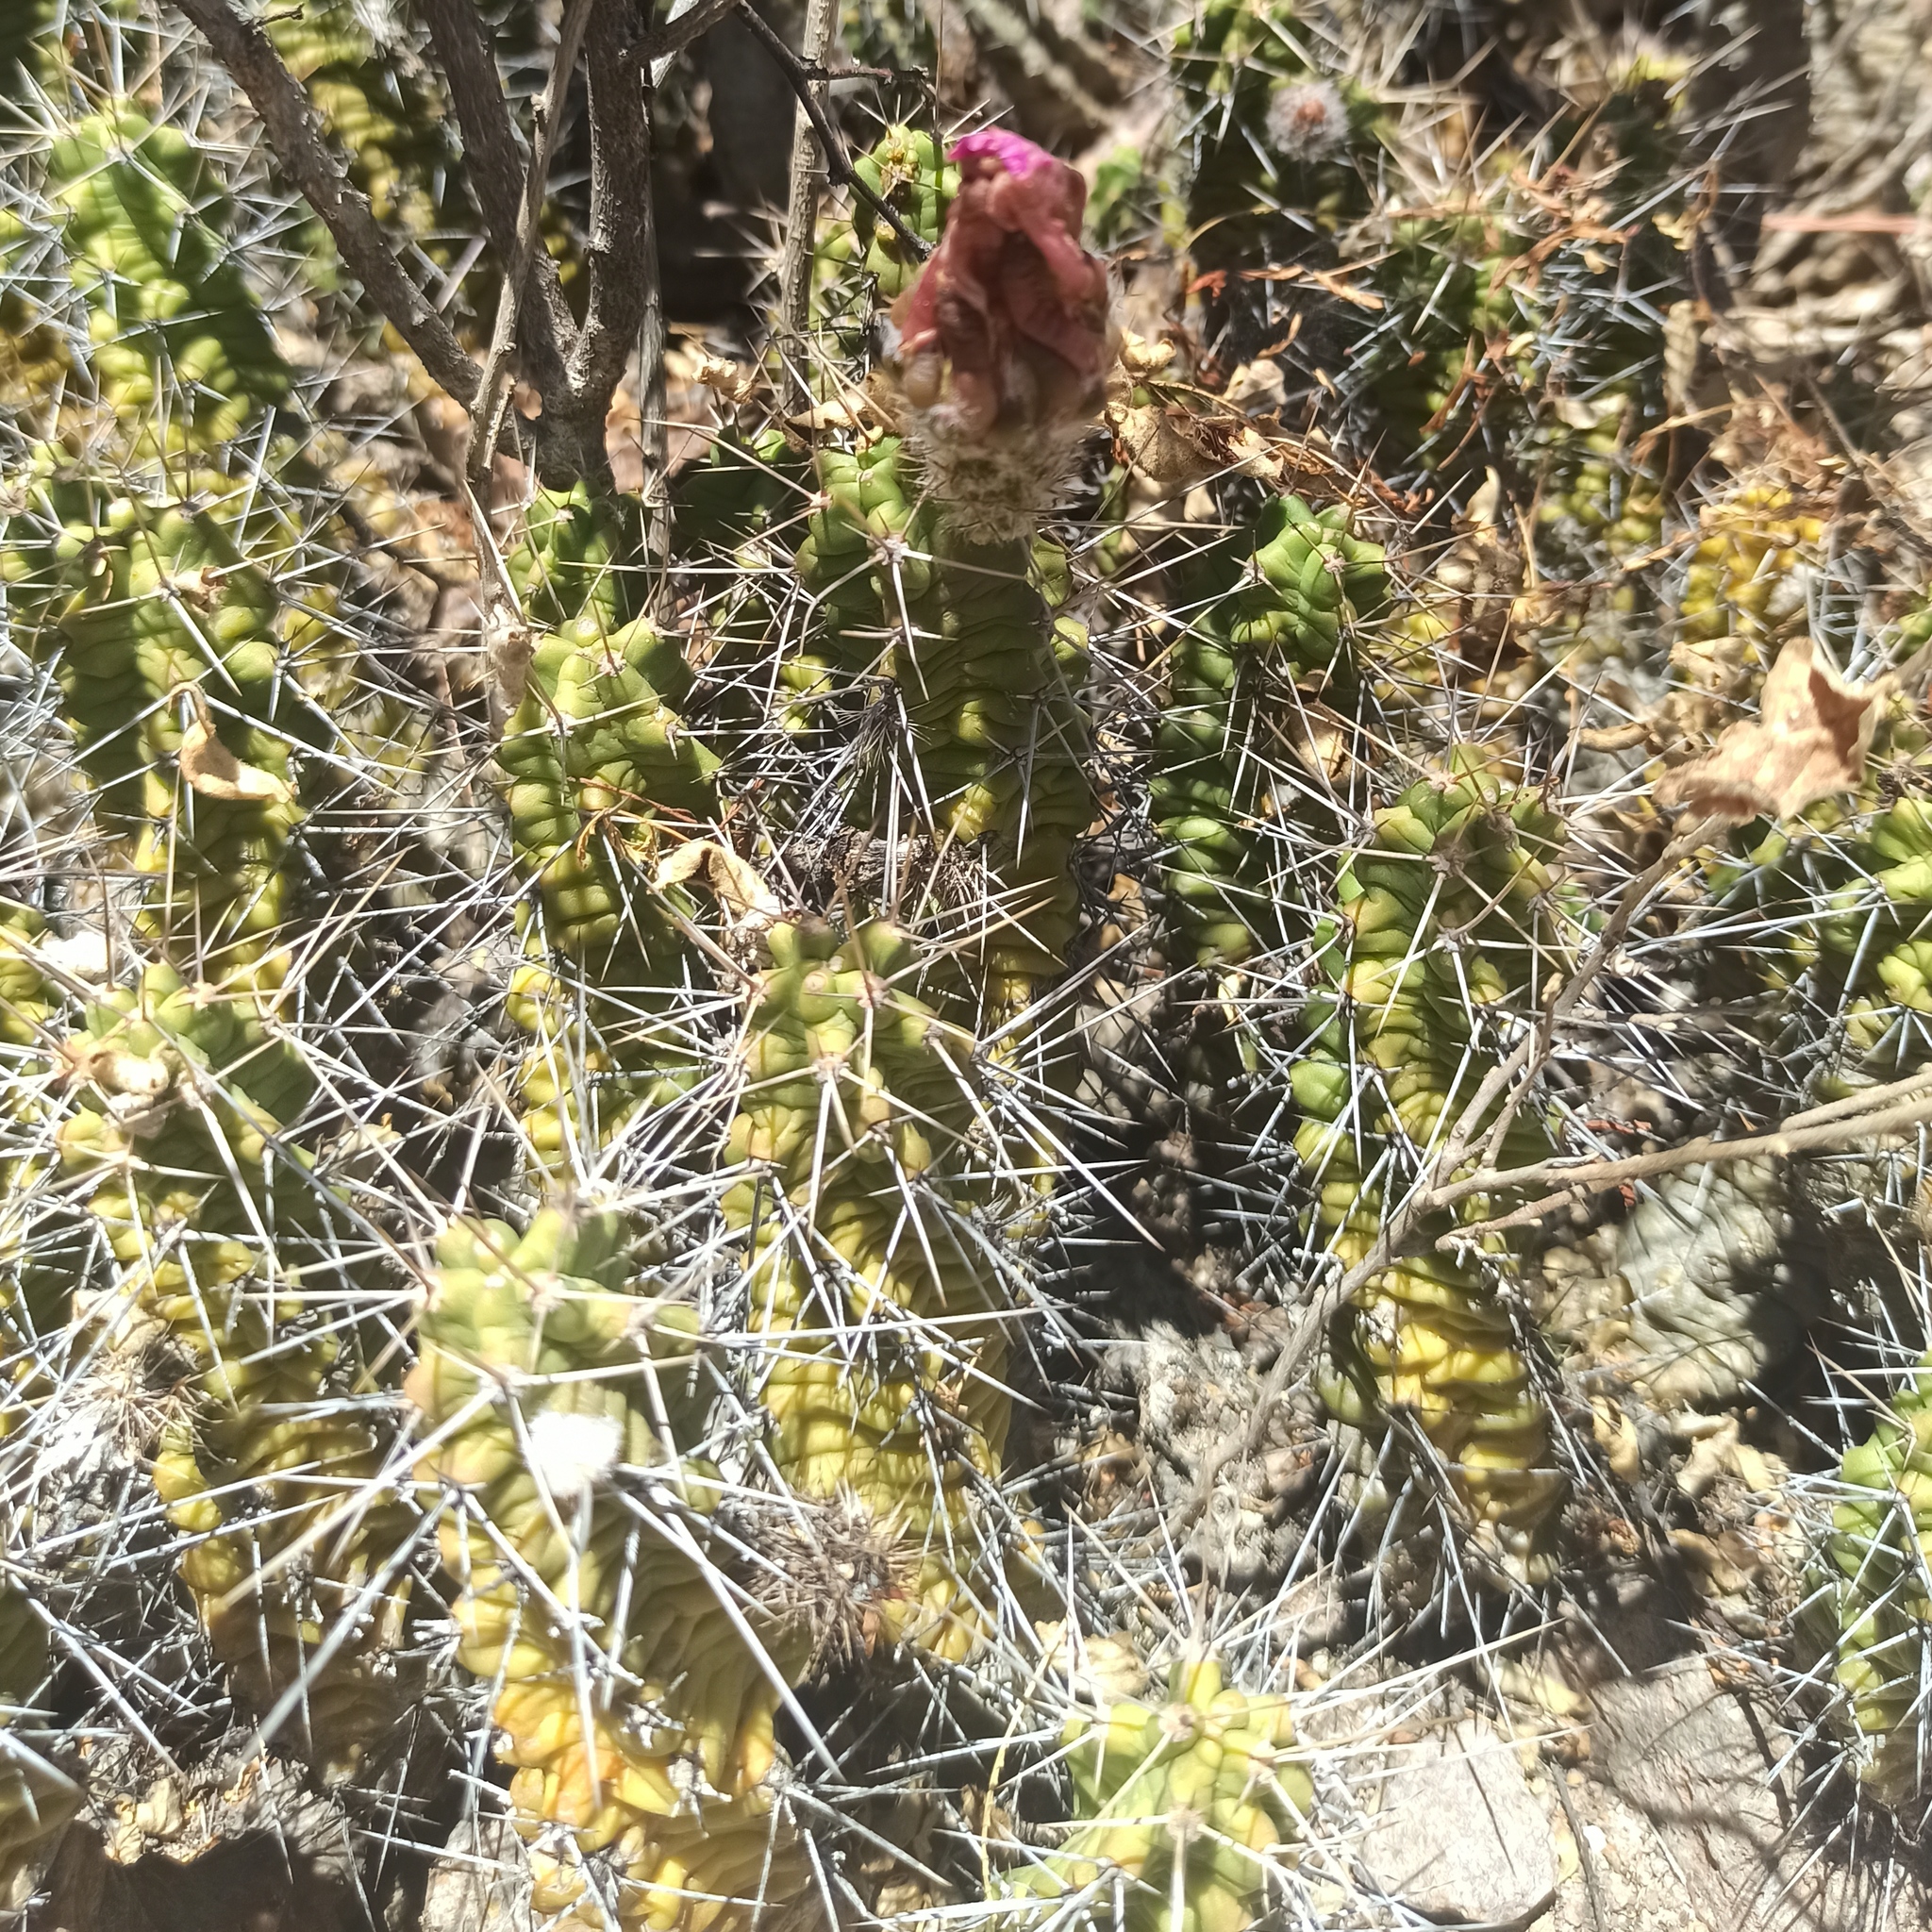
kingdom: Plantae
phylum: Tracheophyta
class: Magnoliopsida
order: Caryophyllales
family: Cactaceae
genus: Echinocereus
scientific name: Echinocereus pentalophus
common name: Ladyfinger cactus
